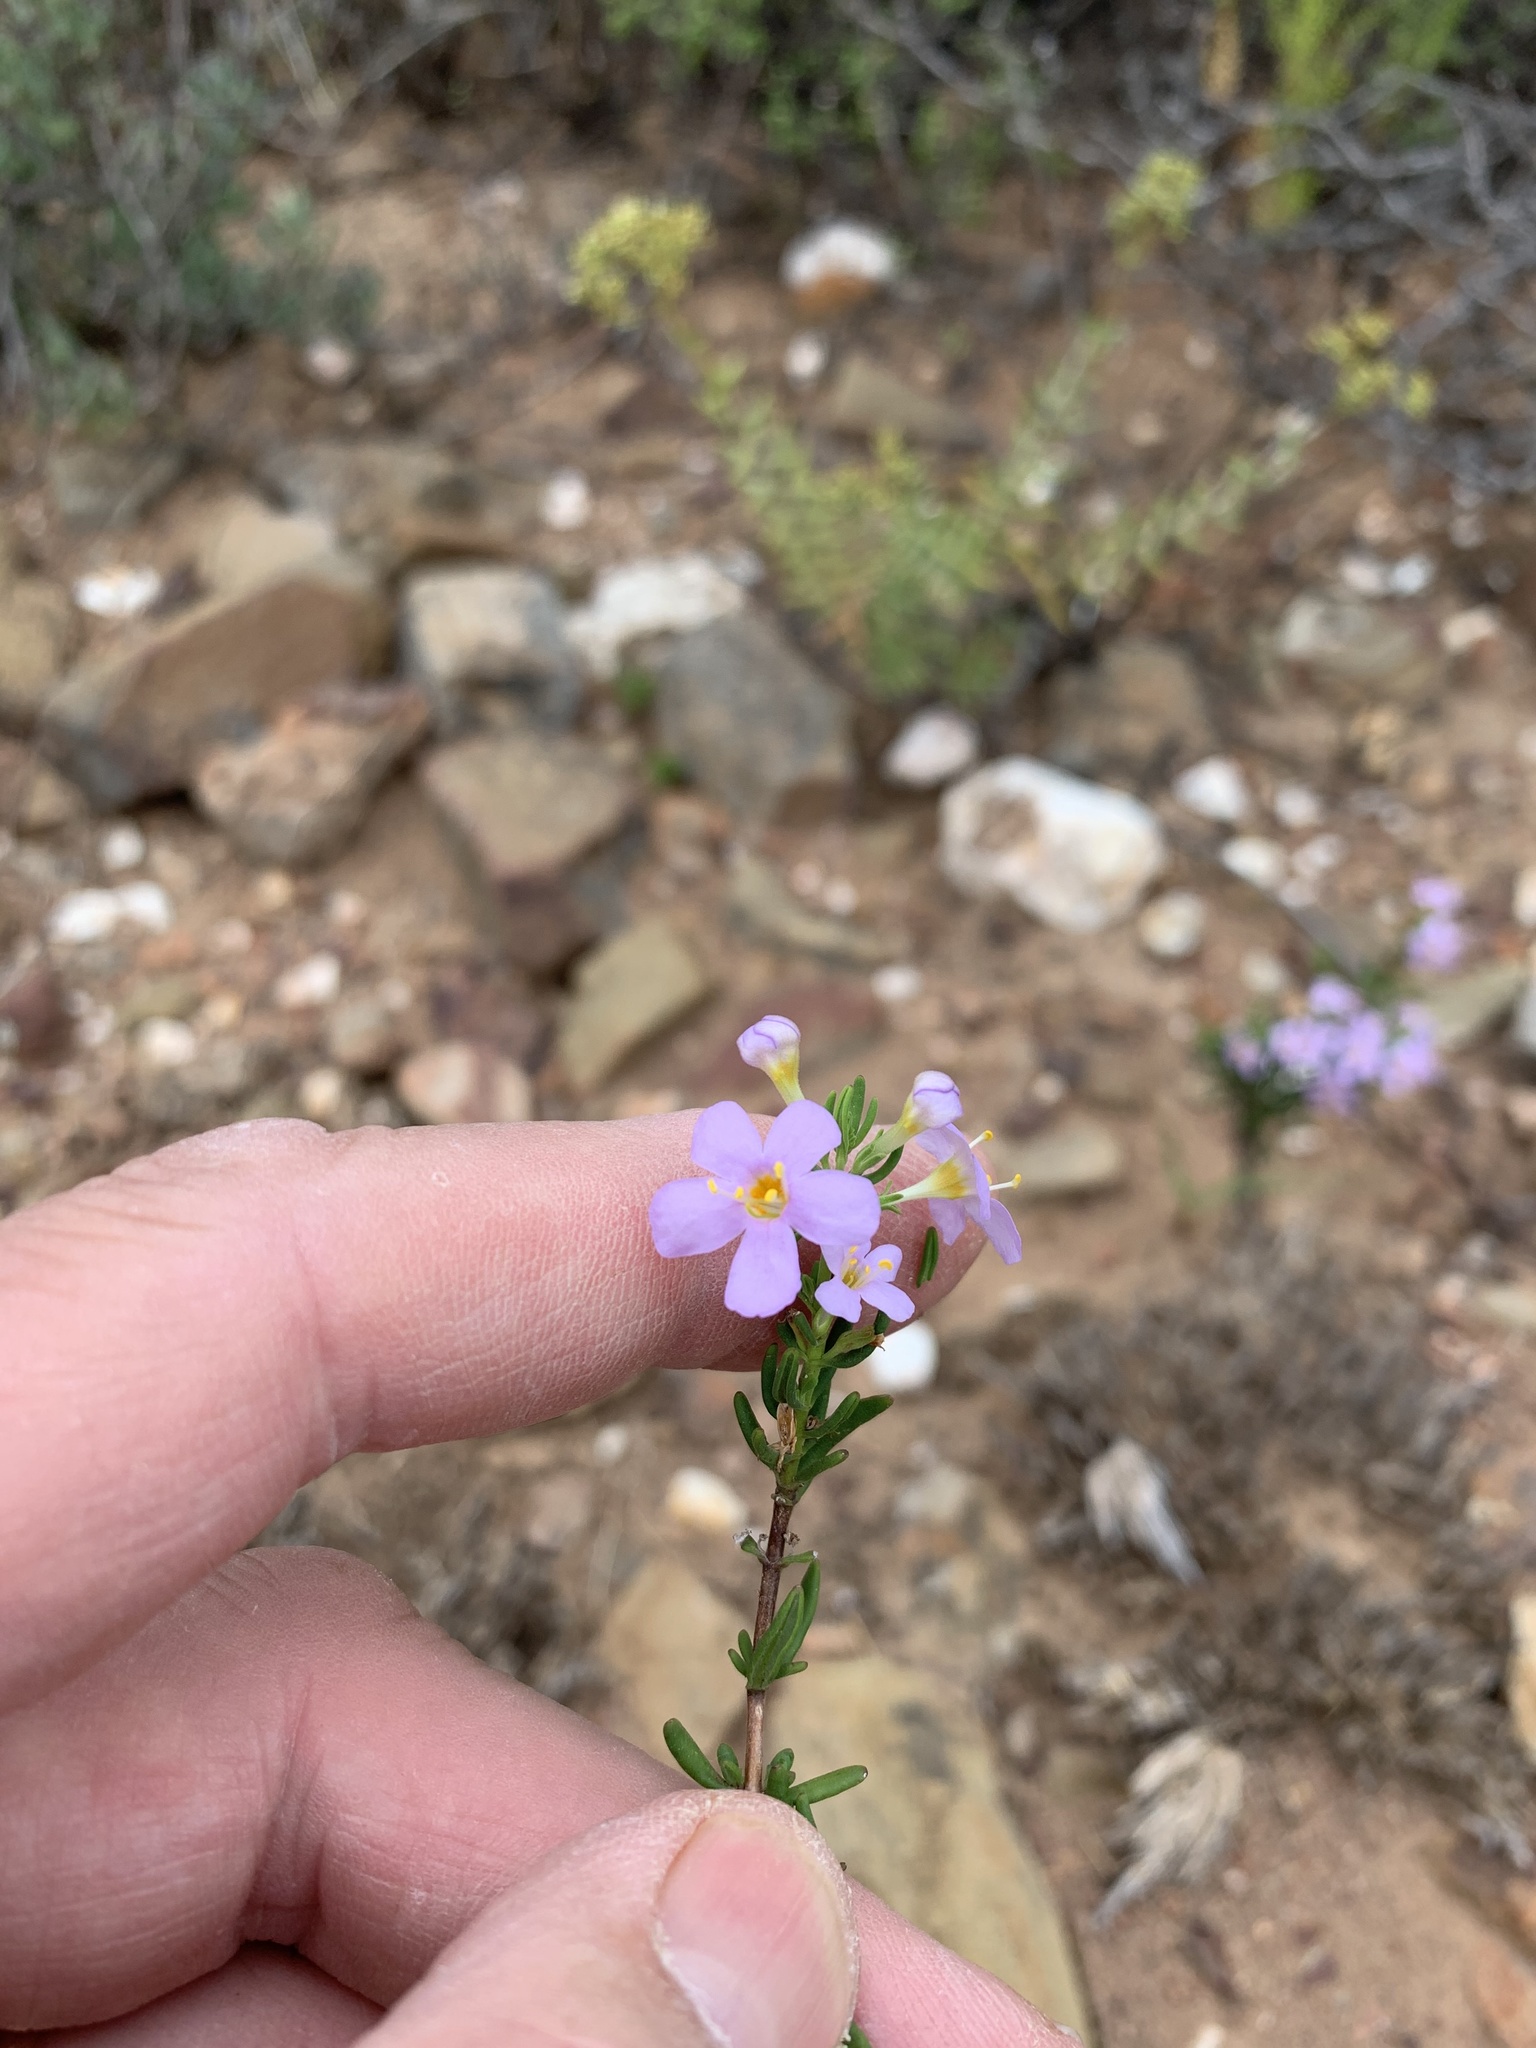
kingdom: Plantae
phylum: Tracheophyta
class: Magnoliopsida
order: Lamiales
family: Scrophulariaceae
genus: Chaenostoma
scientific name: Chaenostoma revolutum
